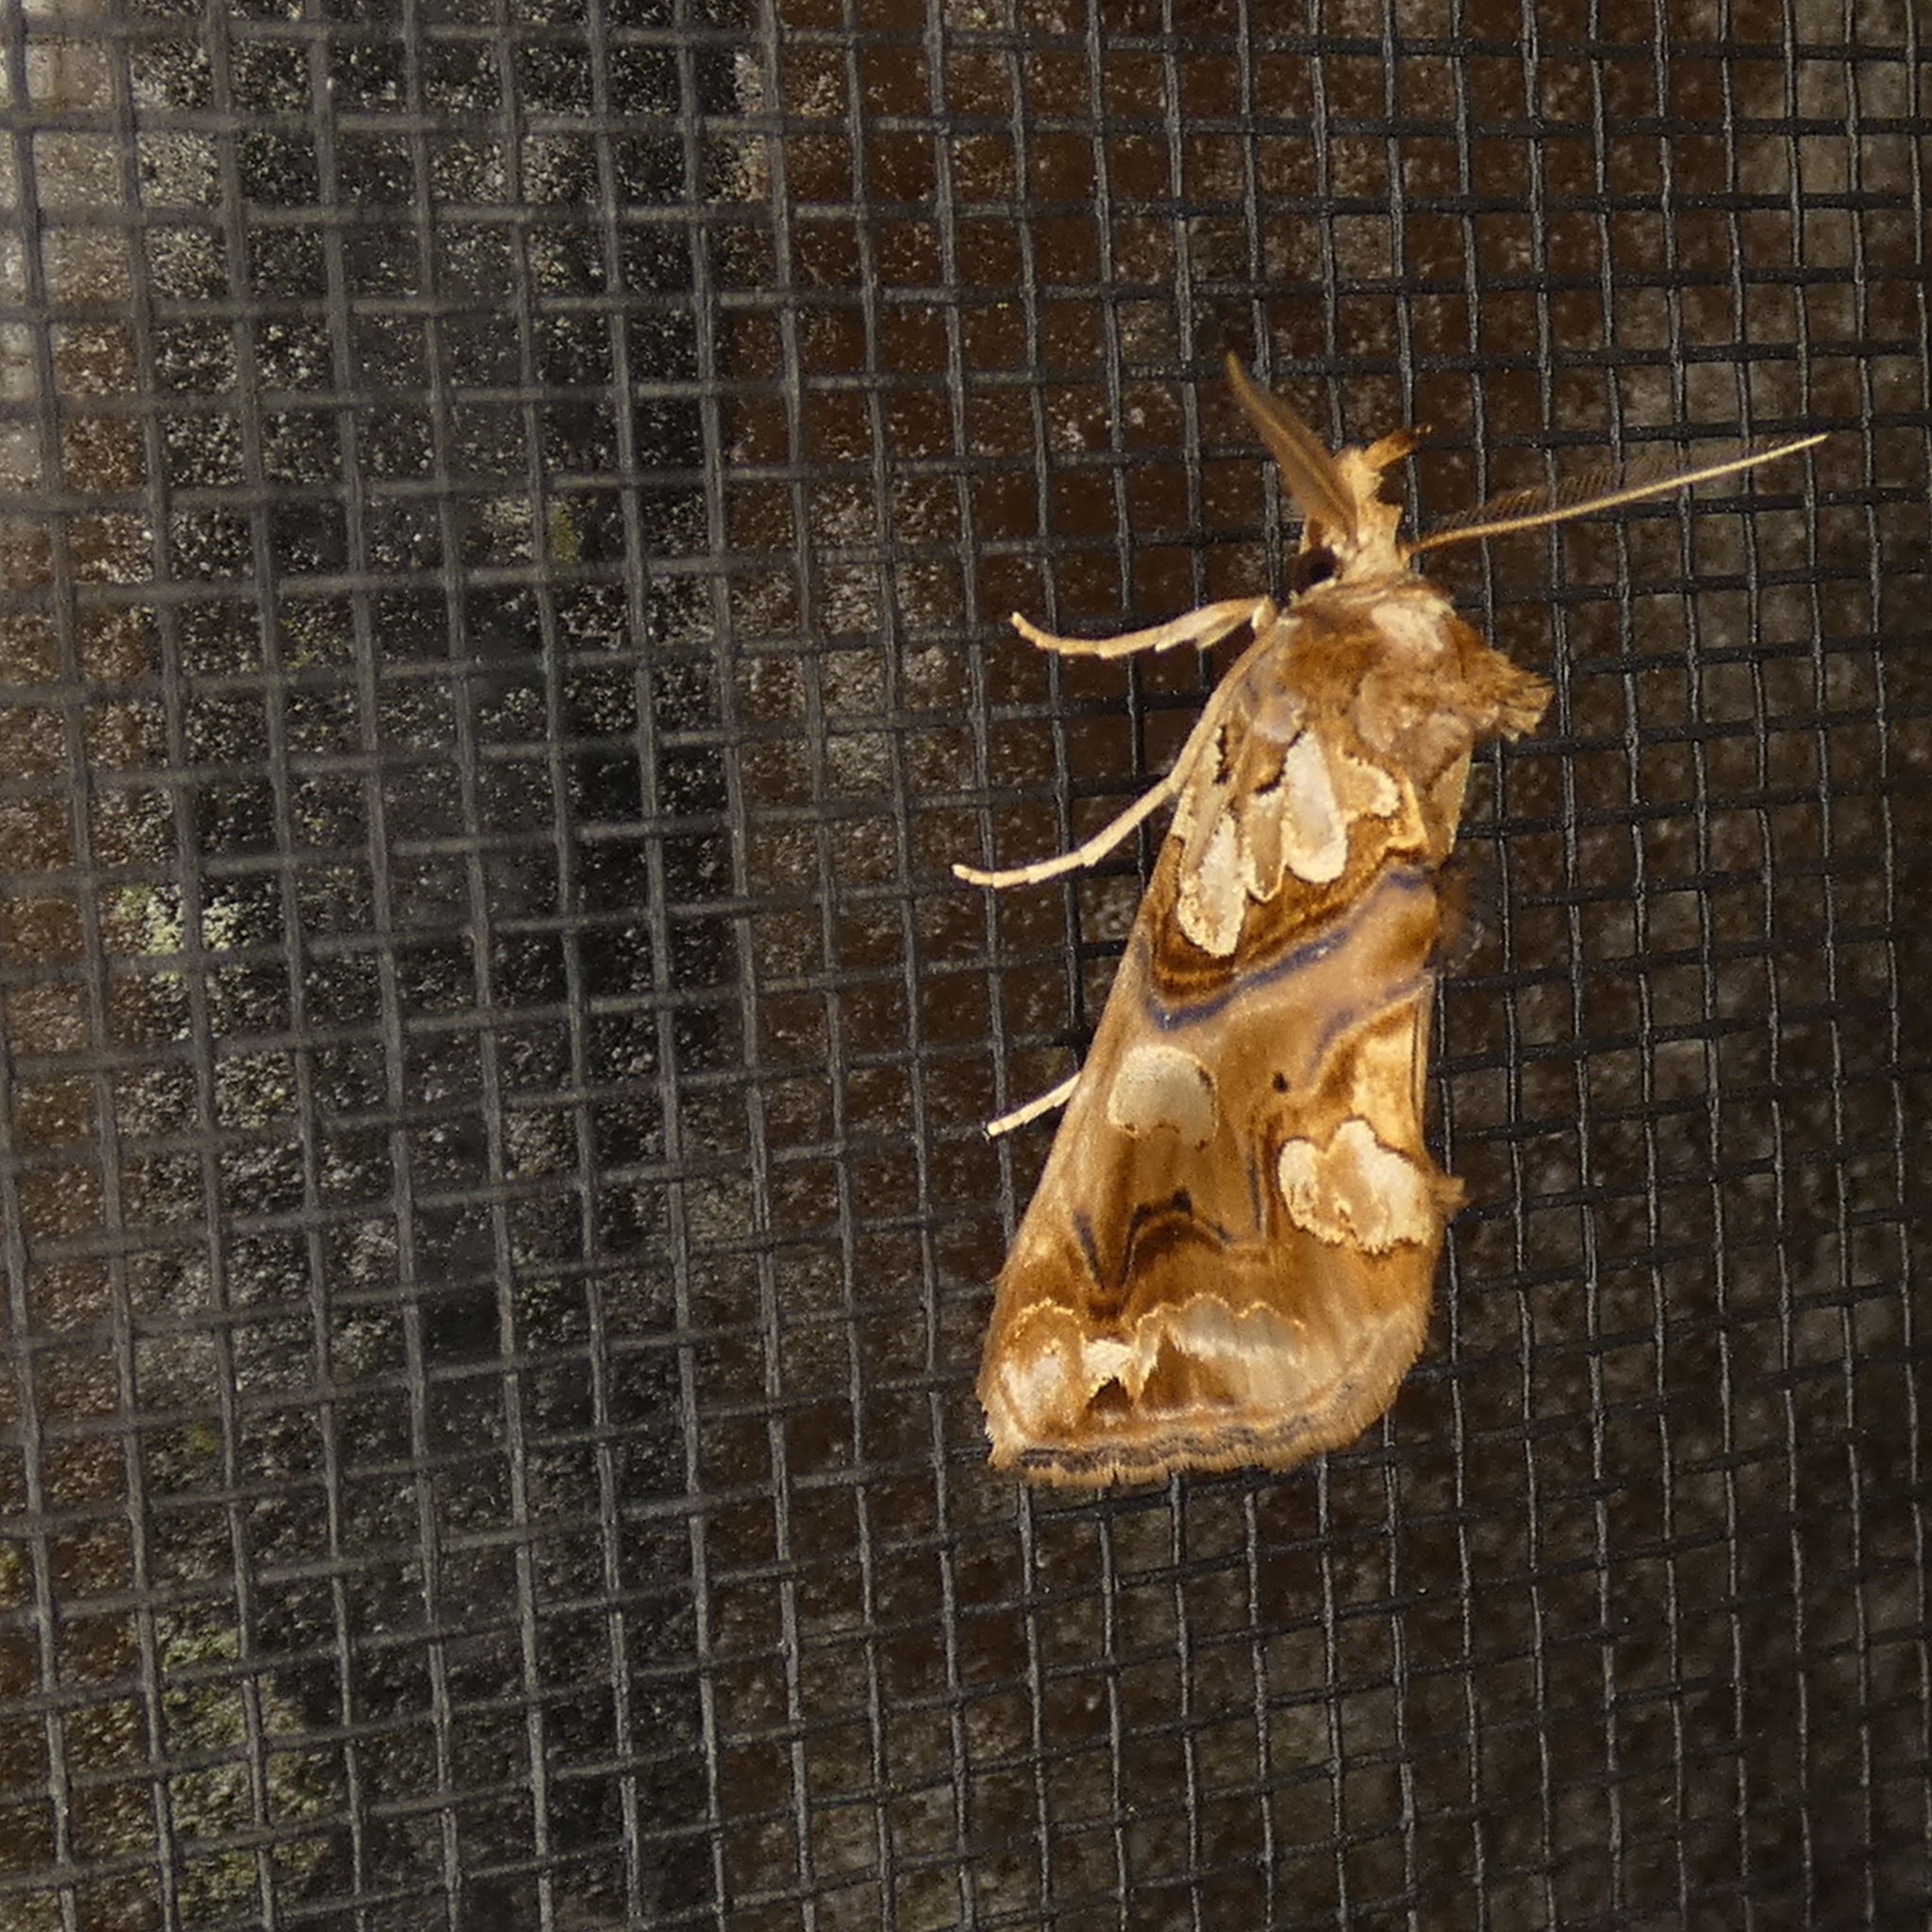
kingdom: Animalia
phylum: Arthropoda
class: Insecta
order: Lepidoptera
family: Erebidae
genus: Plusiodonta
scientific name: Plusiodonta compressipalpis
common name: Moonseed moth
